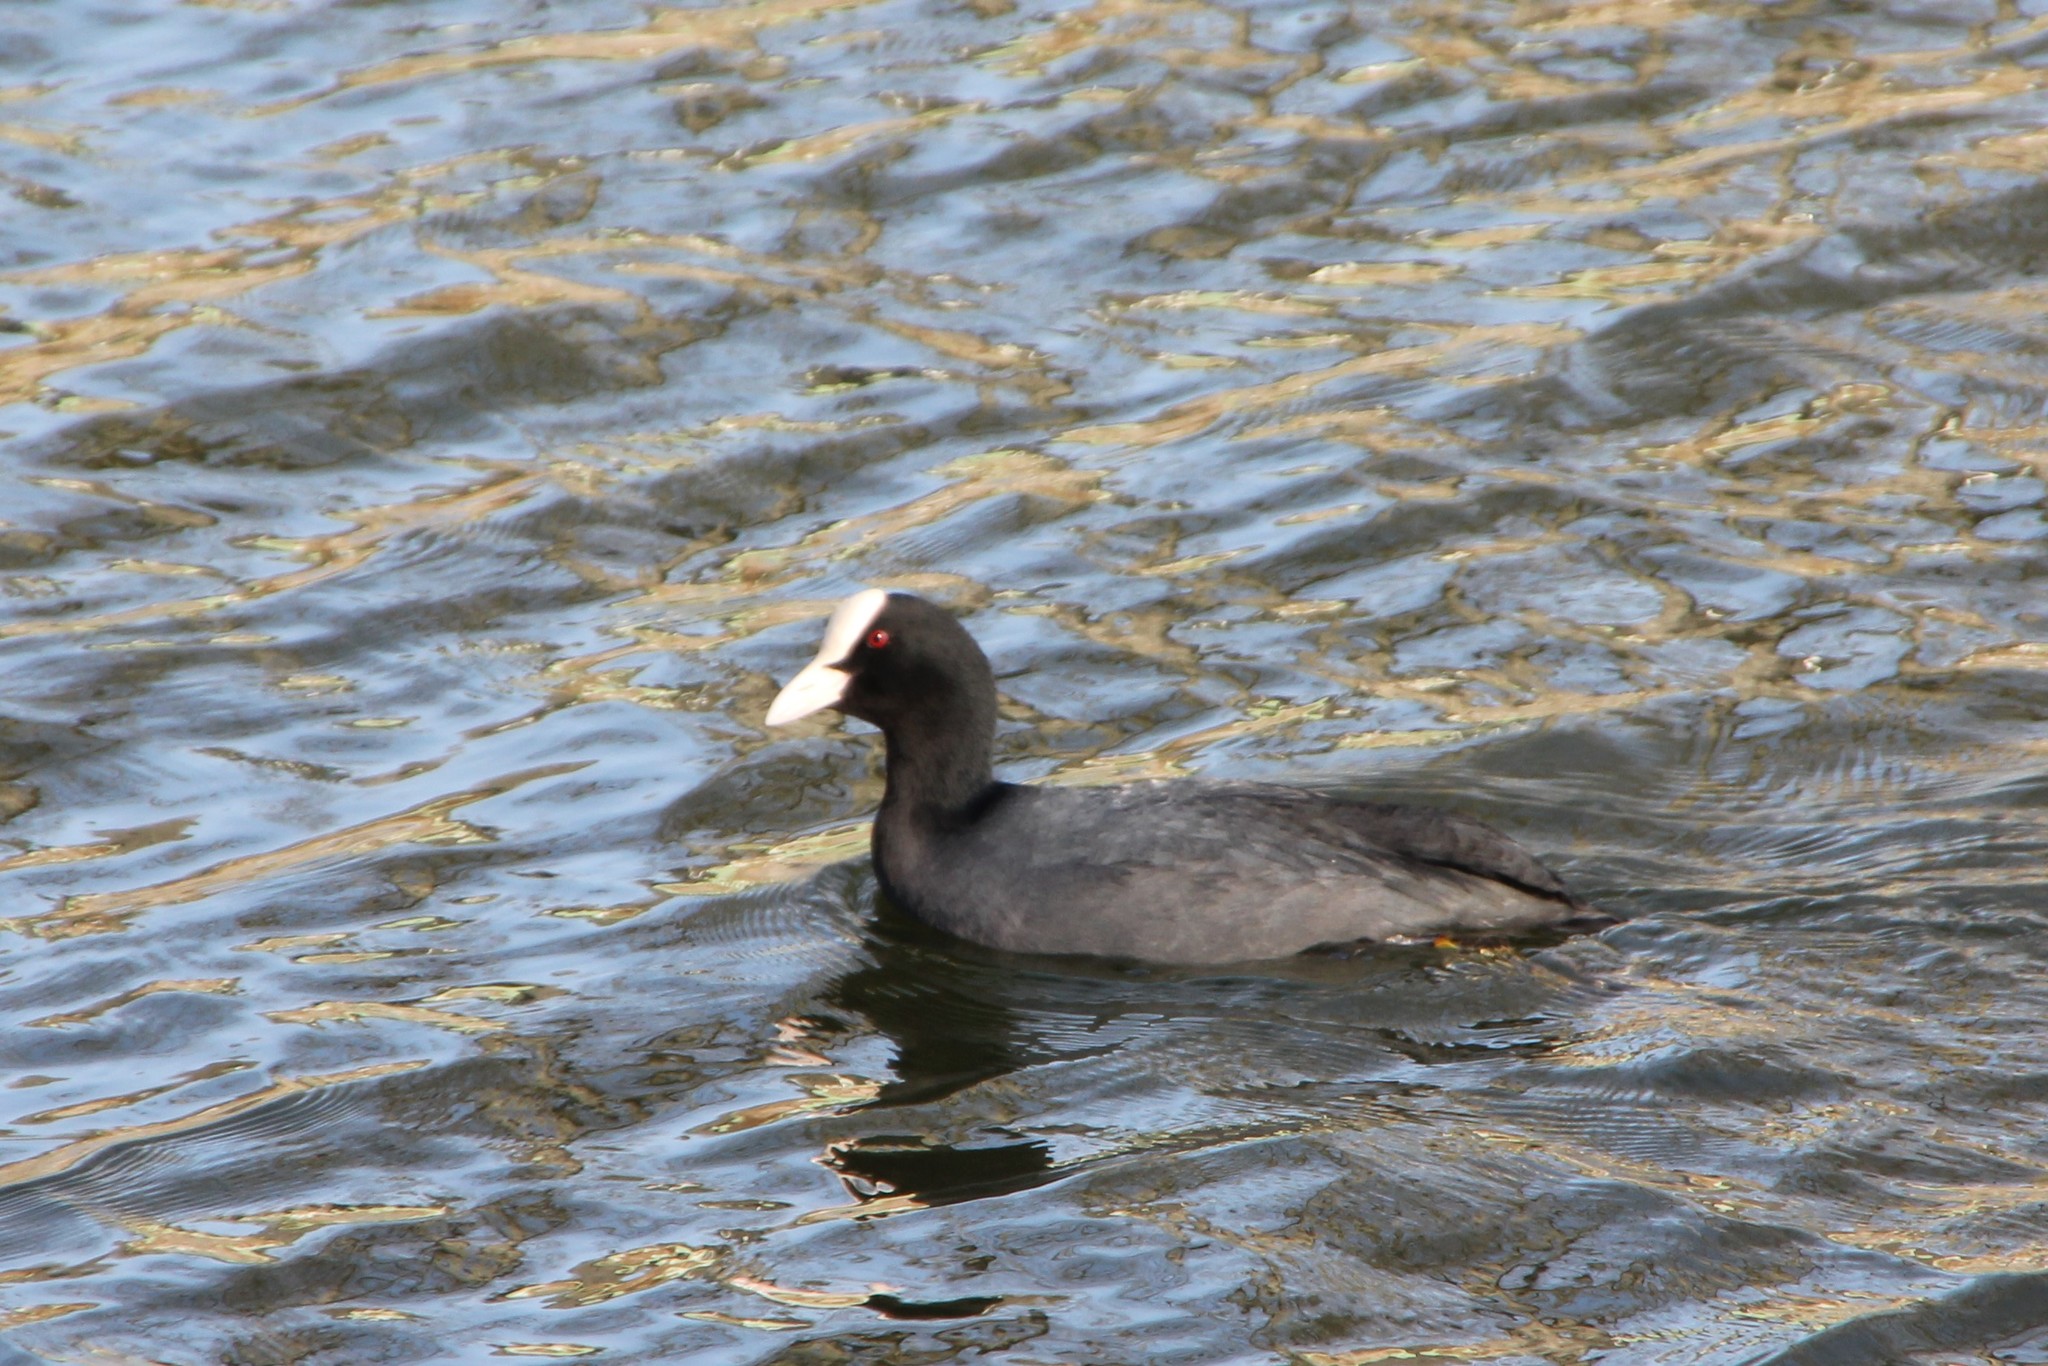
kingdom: Animalia
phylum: Chordata
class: Aves
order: Gruiformes
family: Rallidae
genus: Fulica
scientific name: Fulica atra
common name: Eurasian coot
